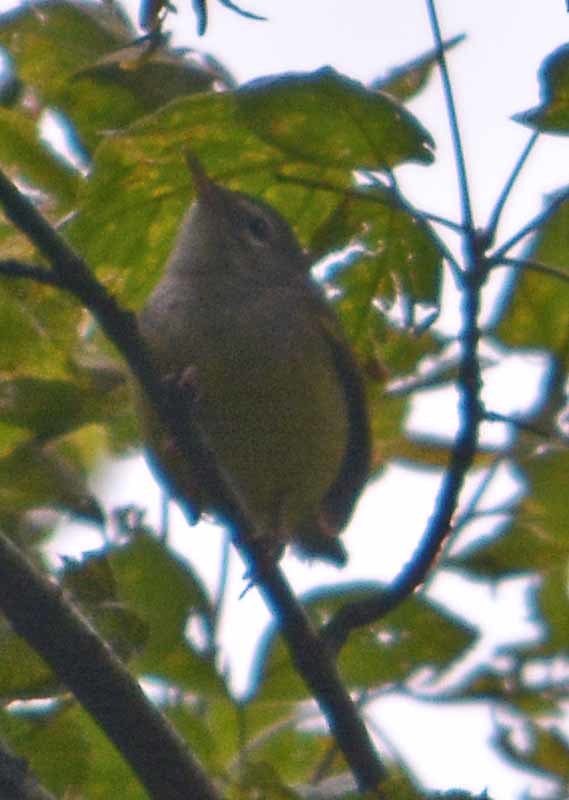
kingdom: Animalia
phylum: Chordata
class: Aves
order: Passeriformes
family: Parulidae
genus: Geothlypis
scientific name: Geothlypis tolmiei
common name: Macgillivray's warbler
